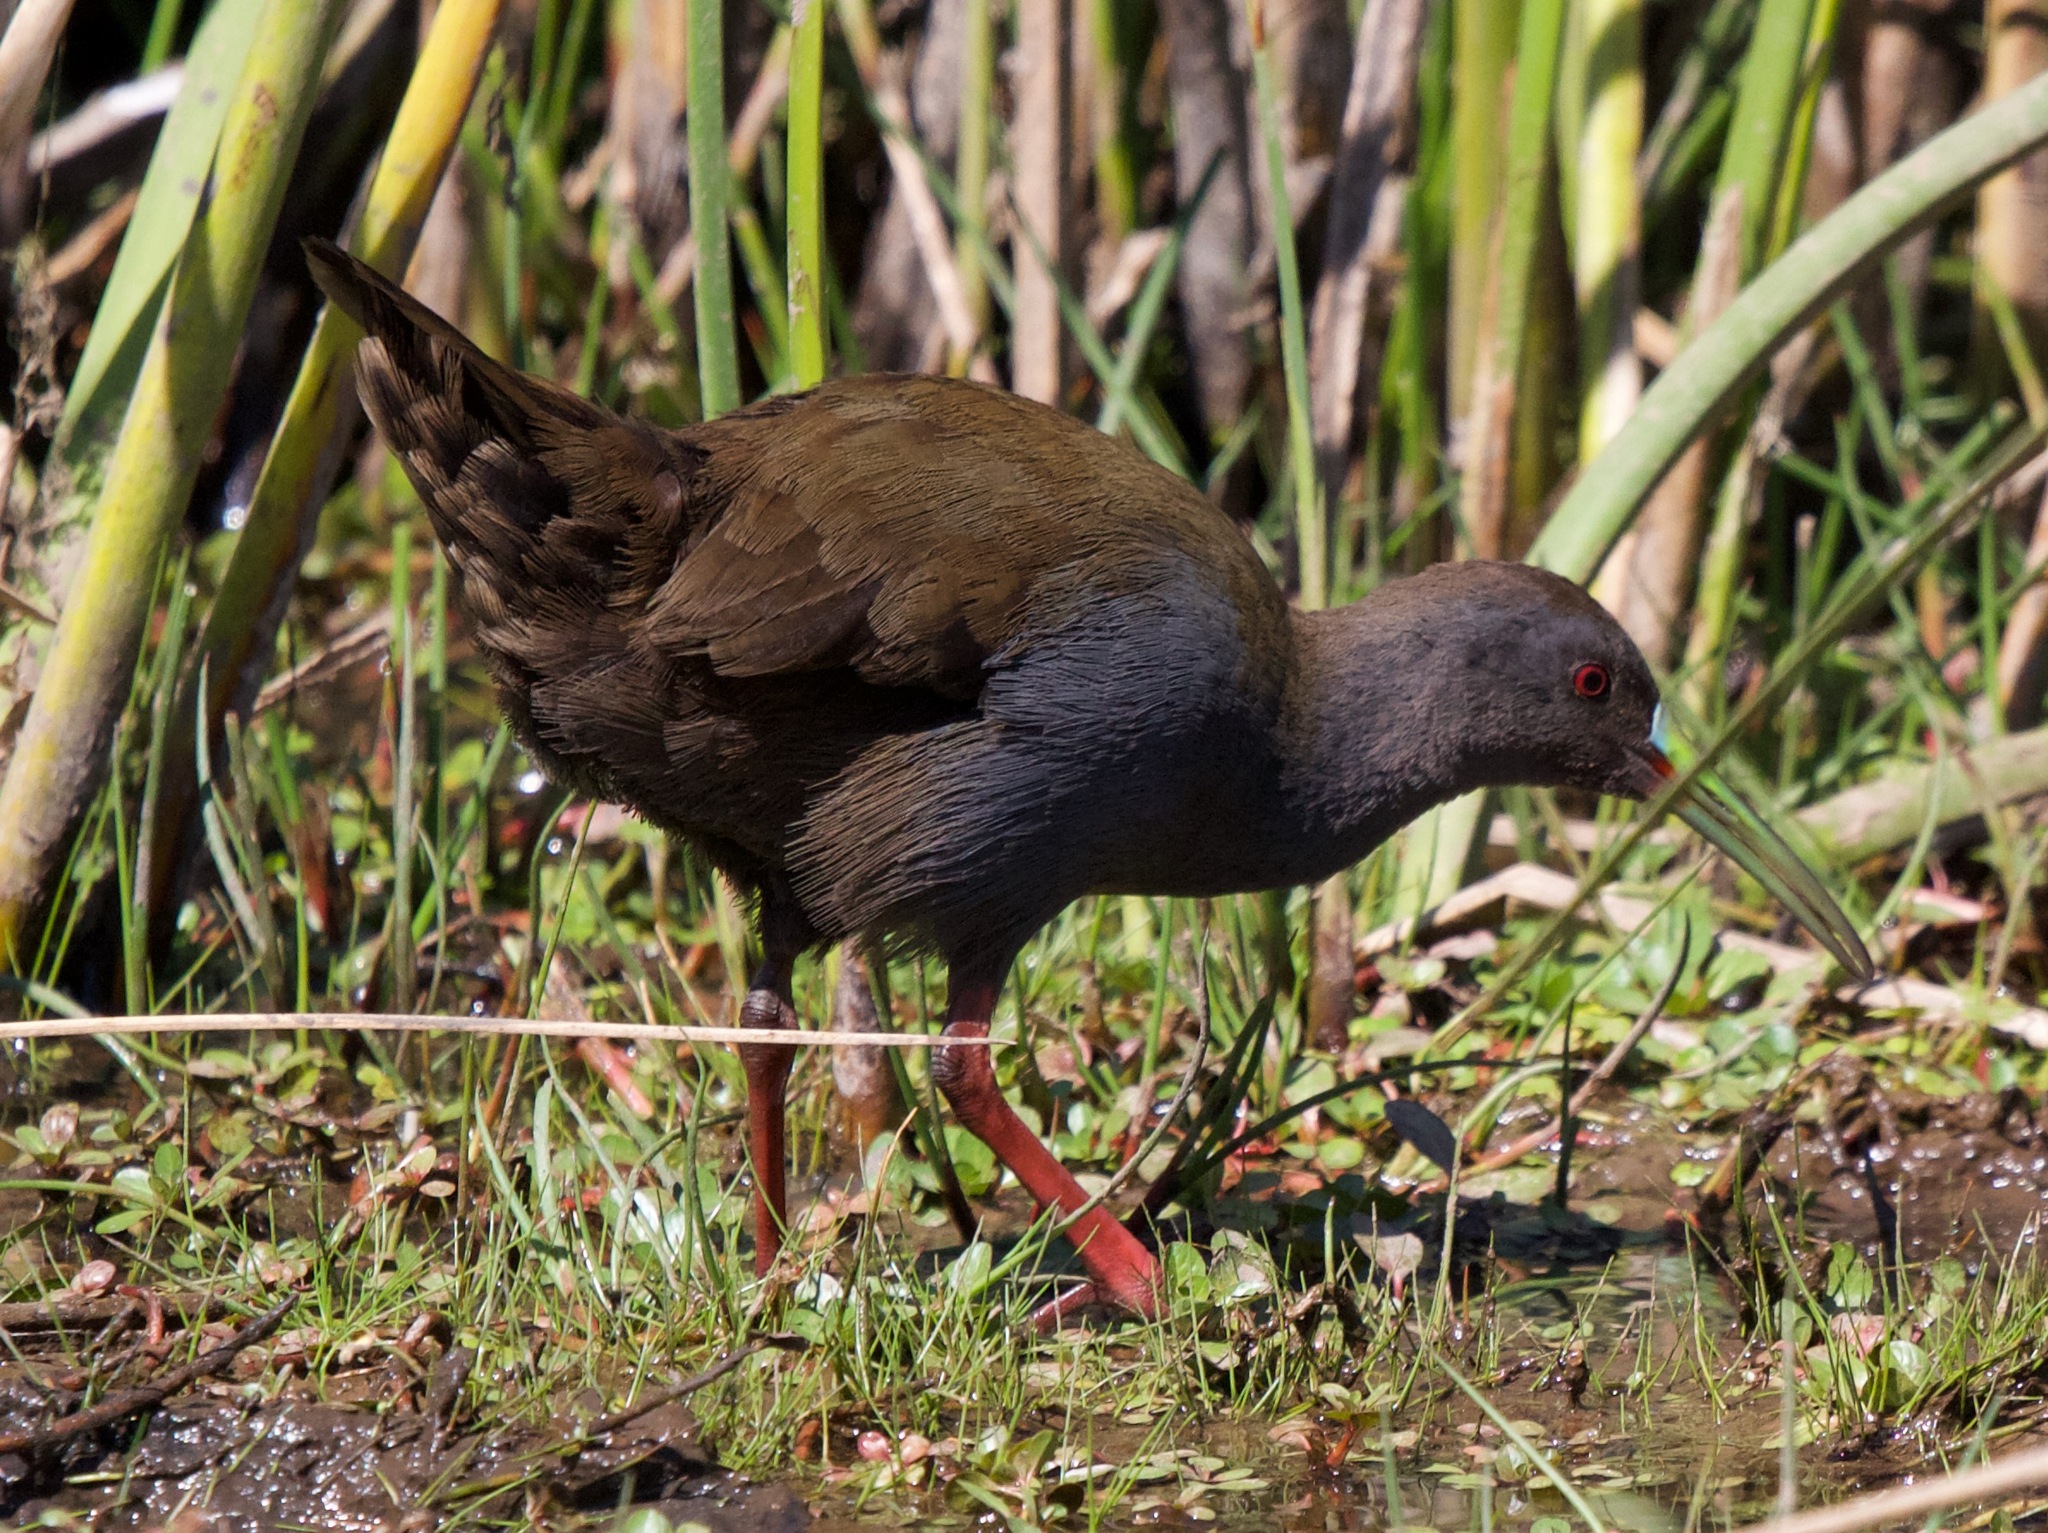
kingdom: Animalia
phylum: Chordata
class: Aves
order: Gruiformes
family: Rallidae
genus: Pardirallus
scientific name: Pardirallus sanguinolentus
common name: Plumbeous rail
